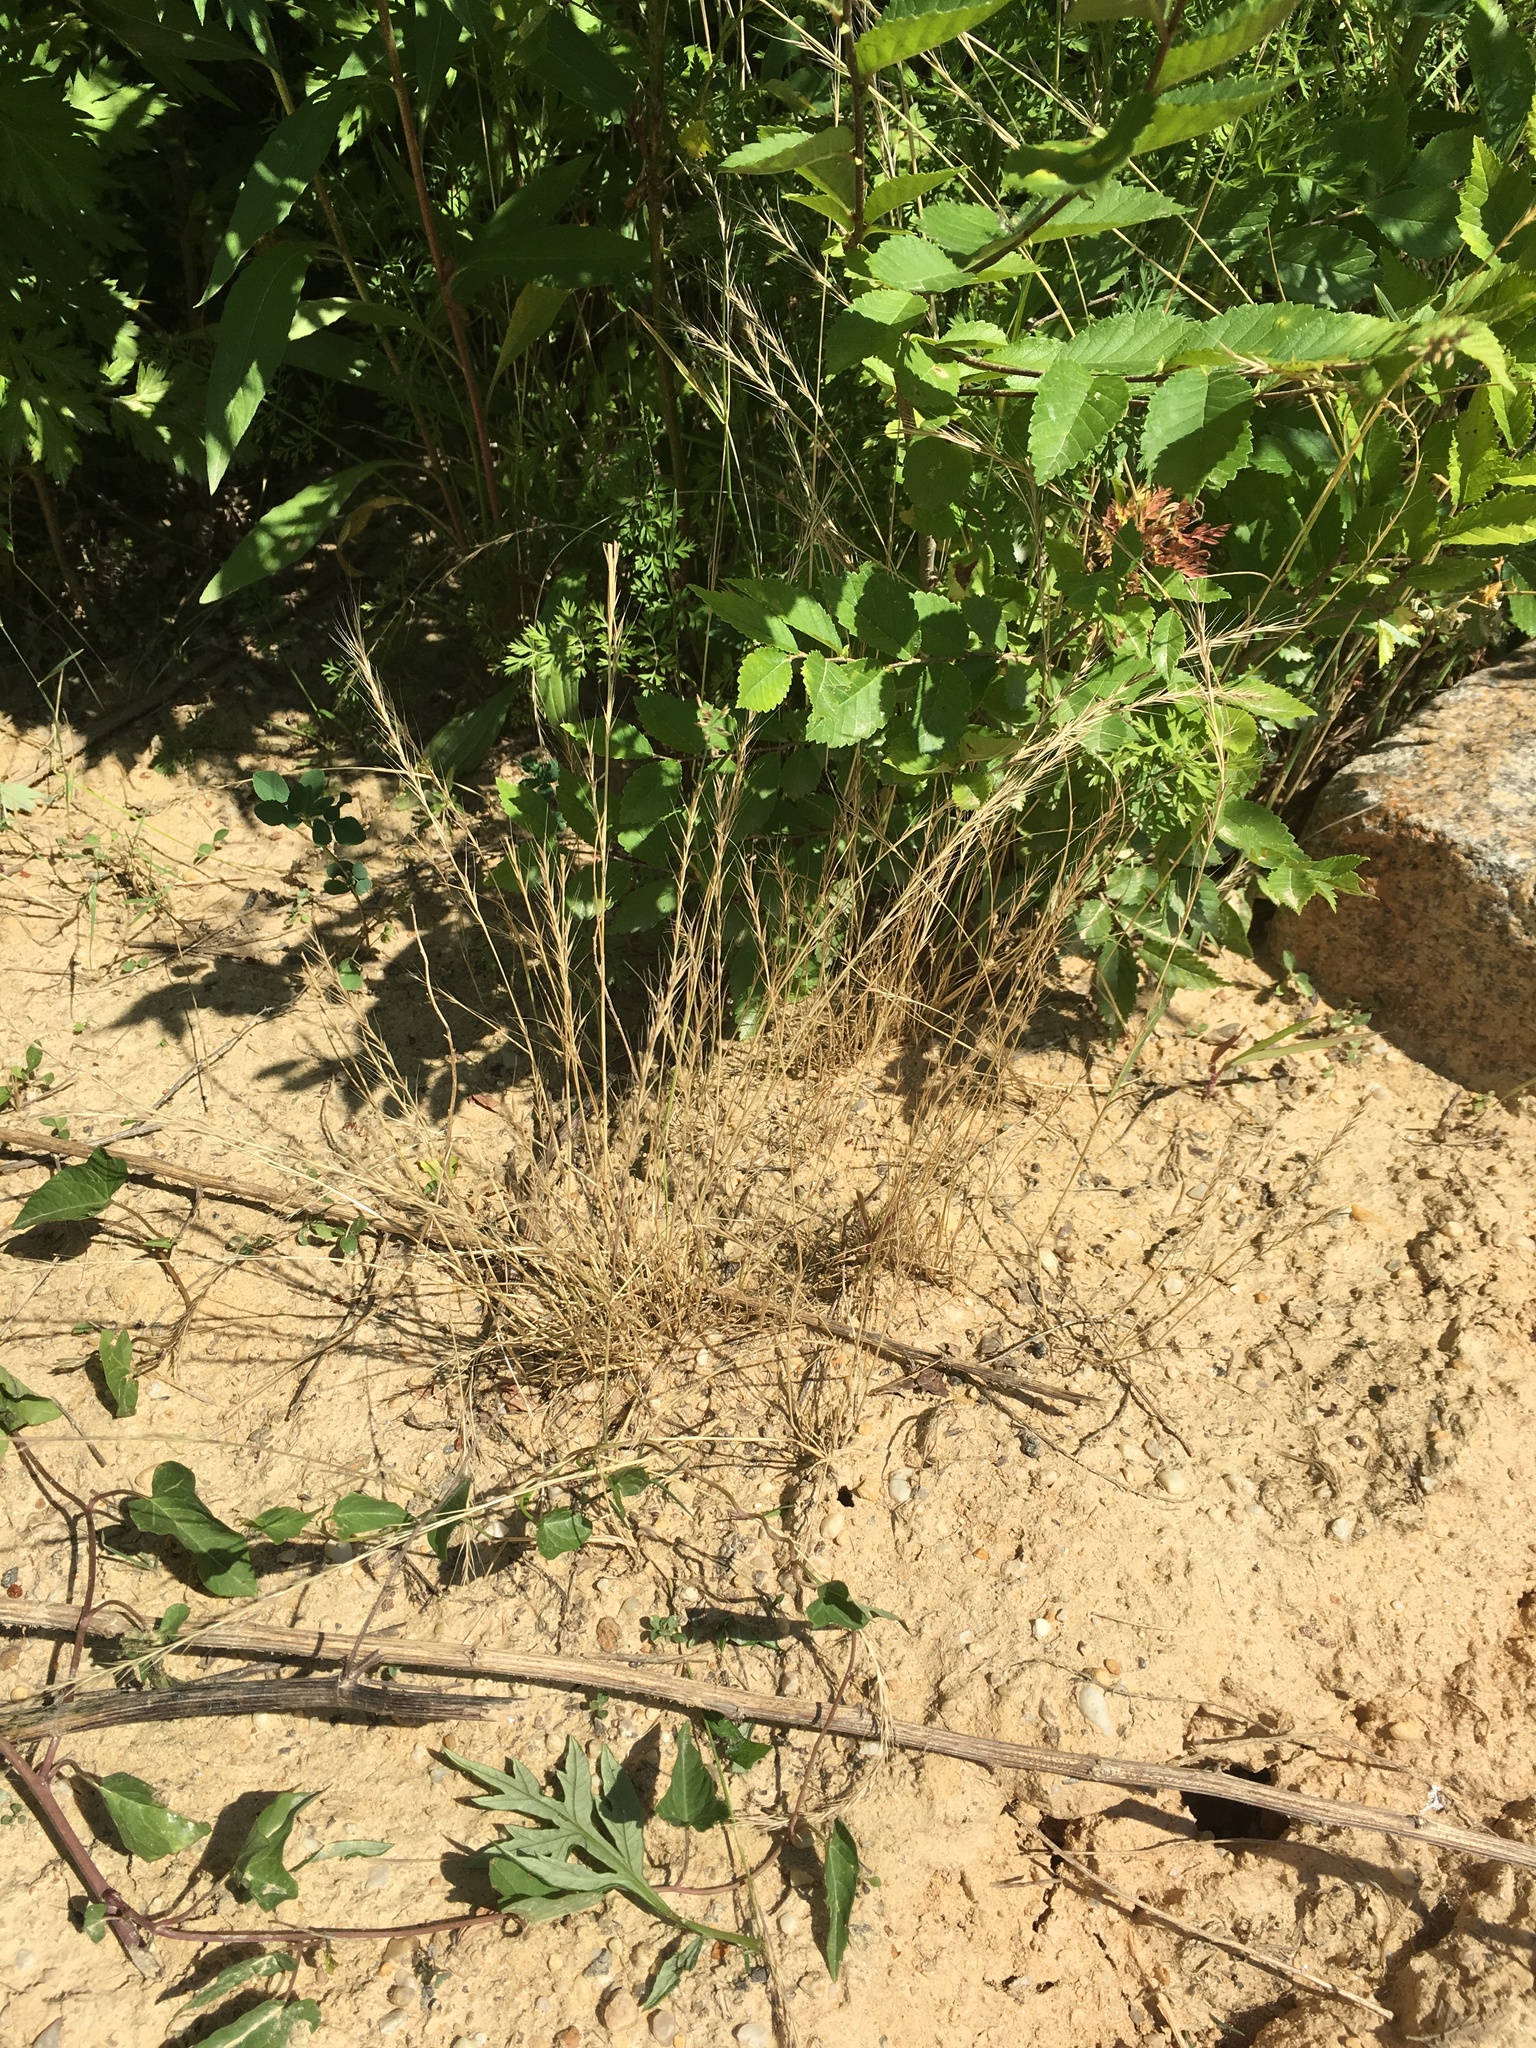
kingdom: Plantae
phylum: Tracheophyta
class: Liliopsida
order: Poales
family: Poaceae
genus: Festuca
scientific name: Festuca myuros
